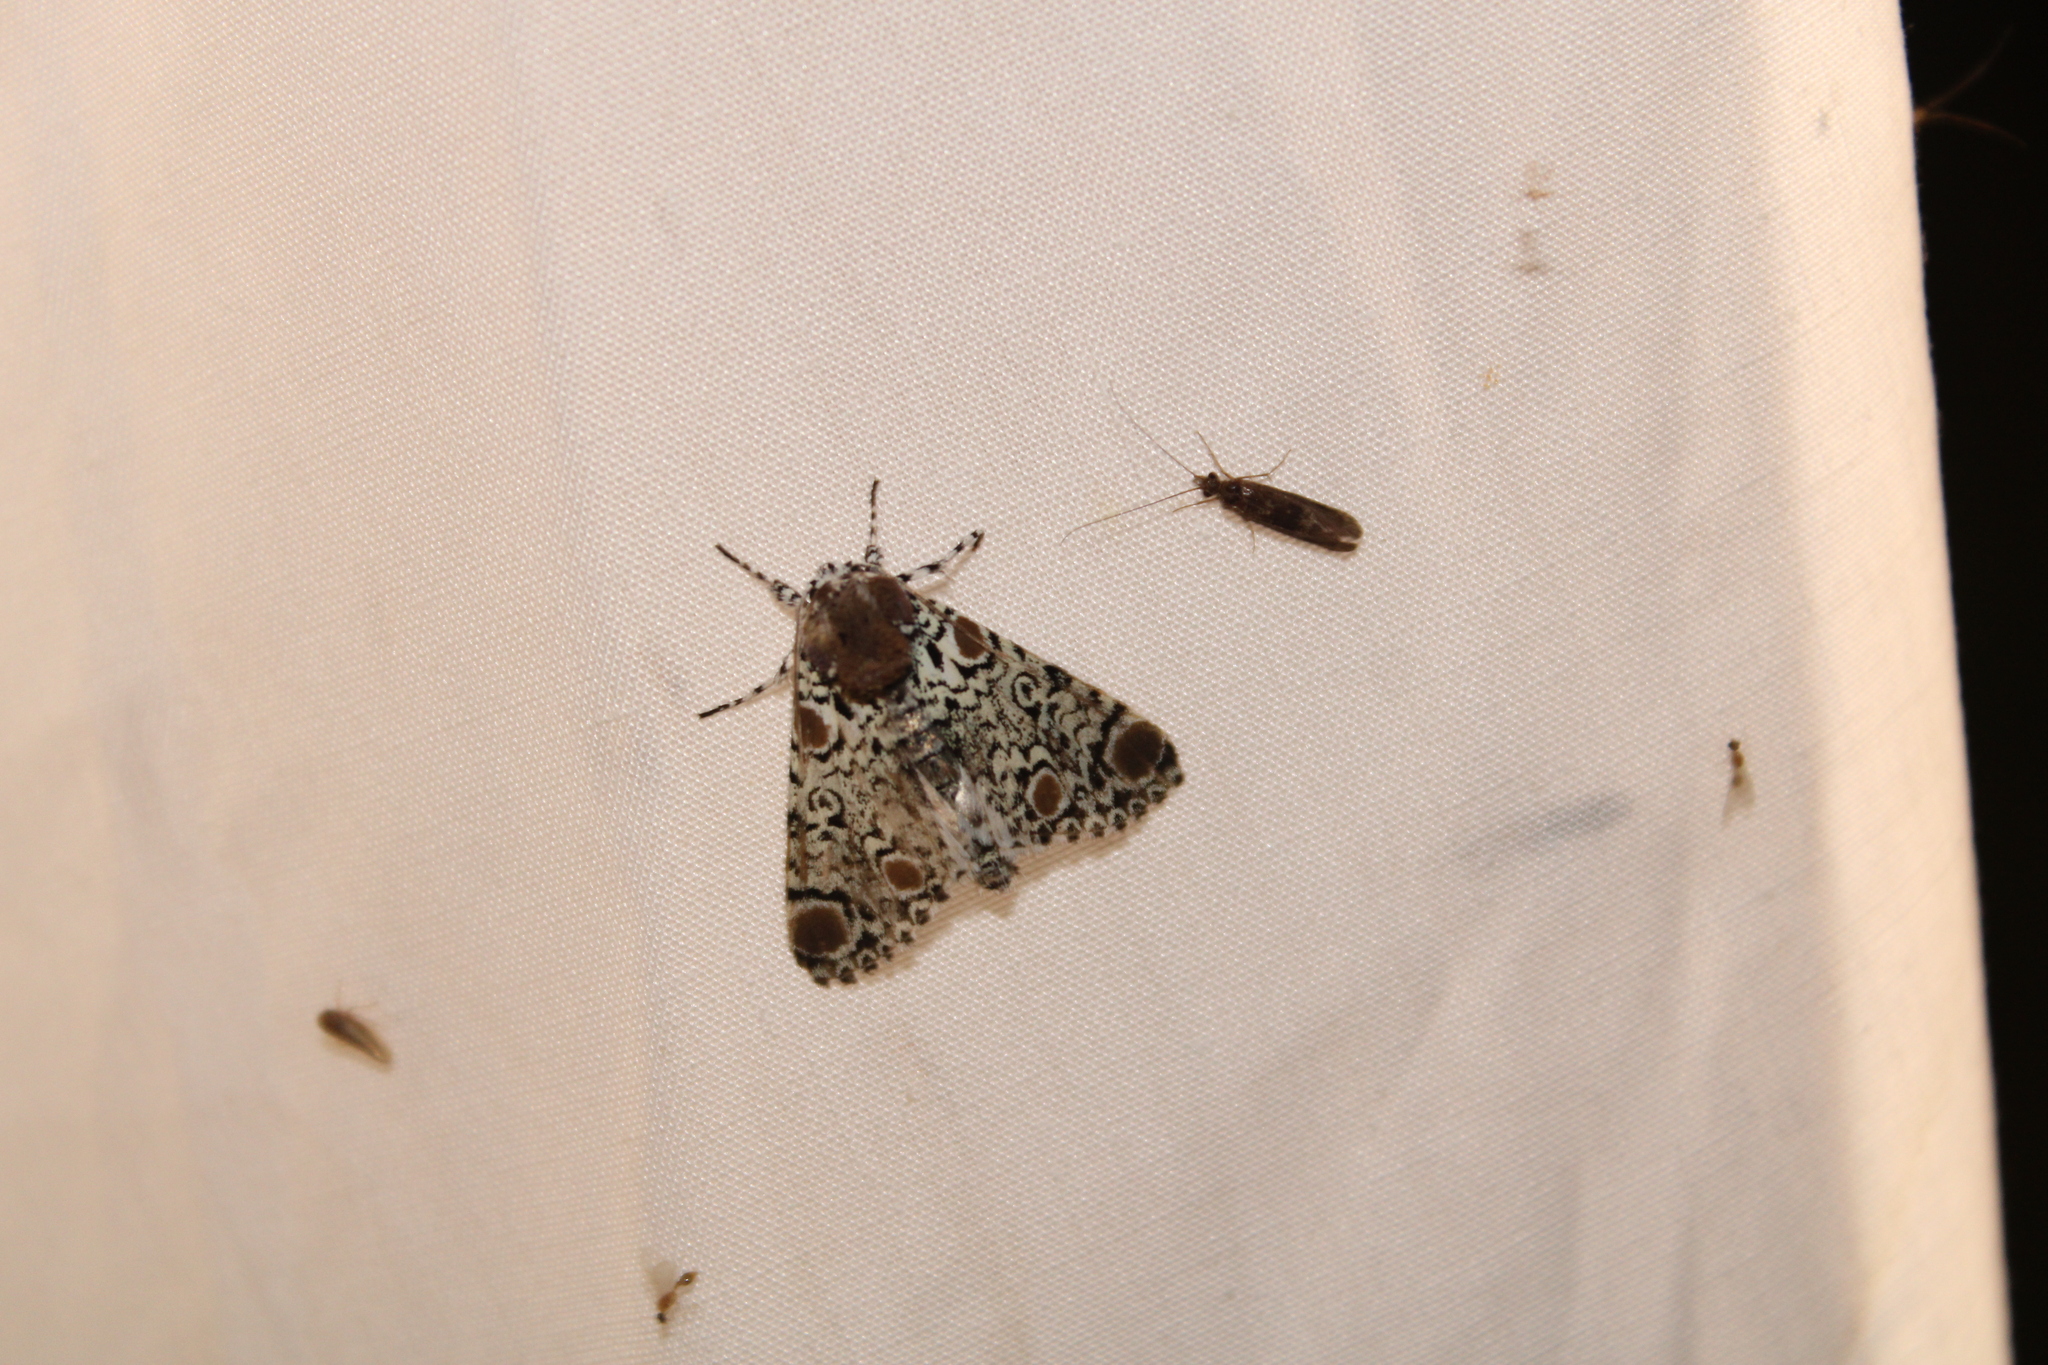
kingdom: Animalia
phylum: Arthropoda
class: Insecta
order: Lepidoptera
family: Noctuidae
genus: Harrisimemna
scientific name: Harrisimemna trisignata
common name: Harris threespot
